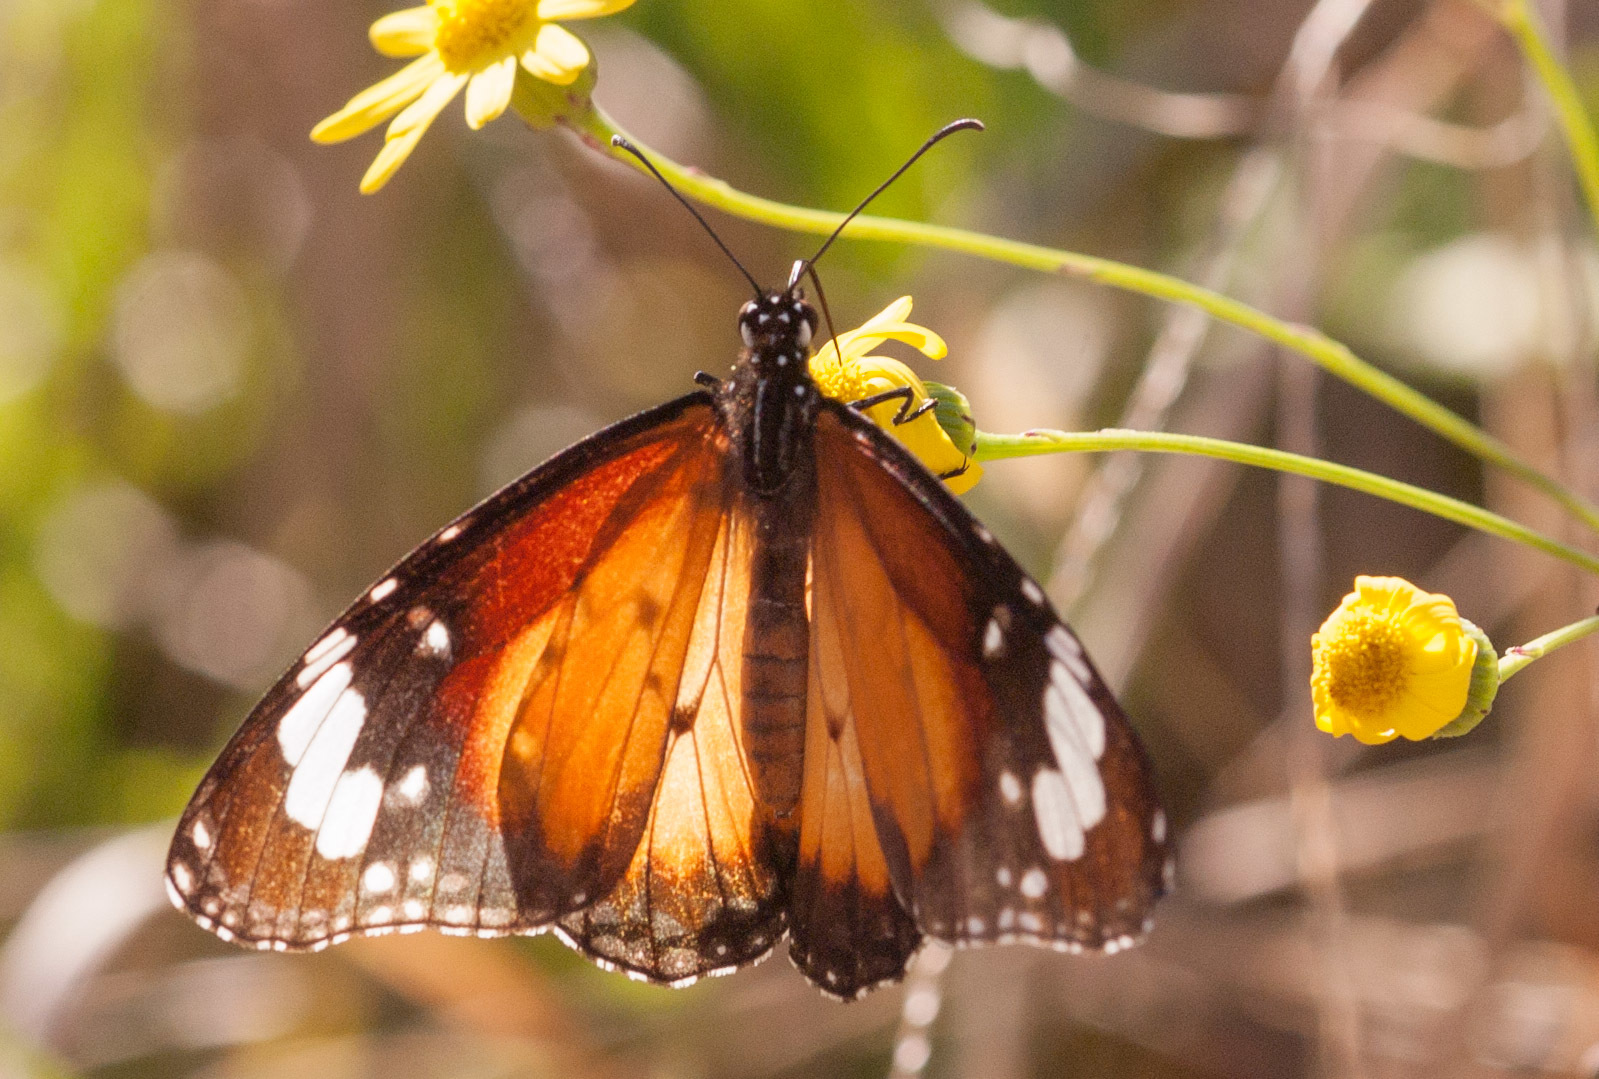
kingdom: Animalia
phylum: Arthropoda
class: Insecta
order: Lepidoptera
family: Nymphalidae
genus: Danaus
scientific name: Danaus chrysippus
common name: Plain tiger
